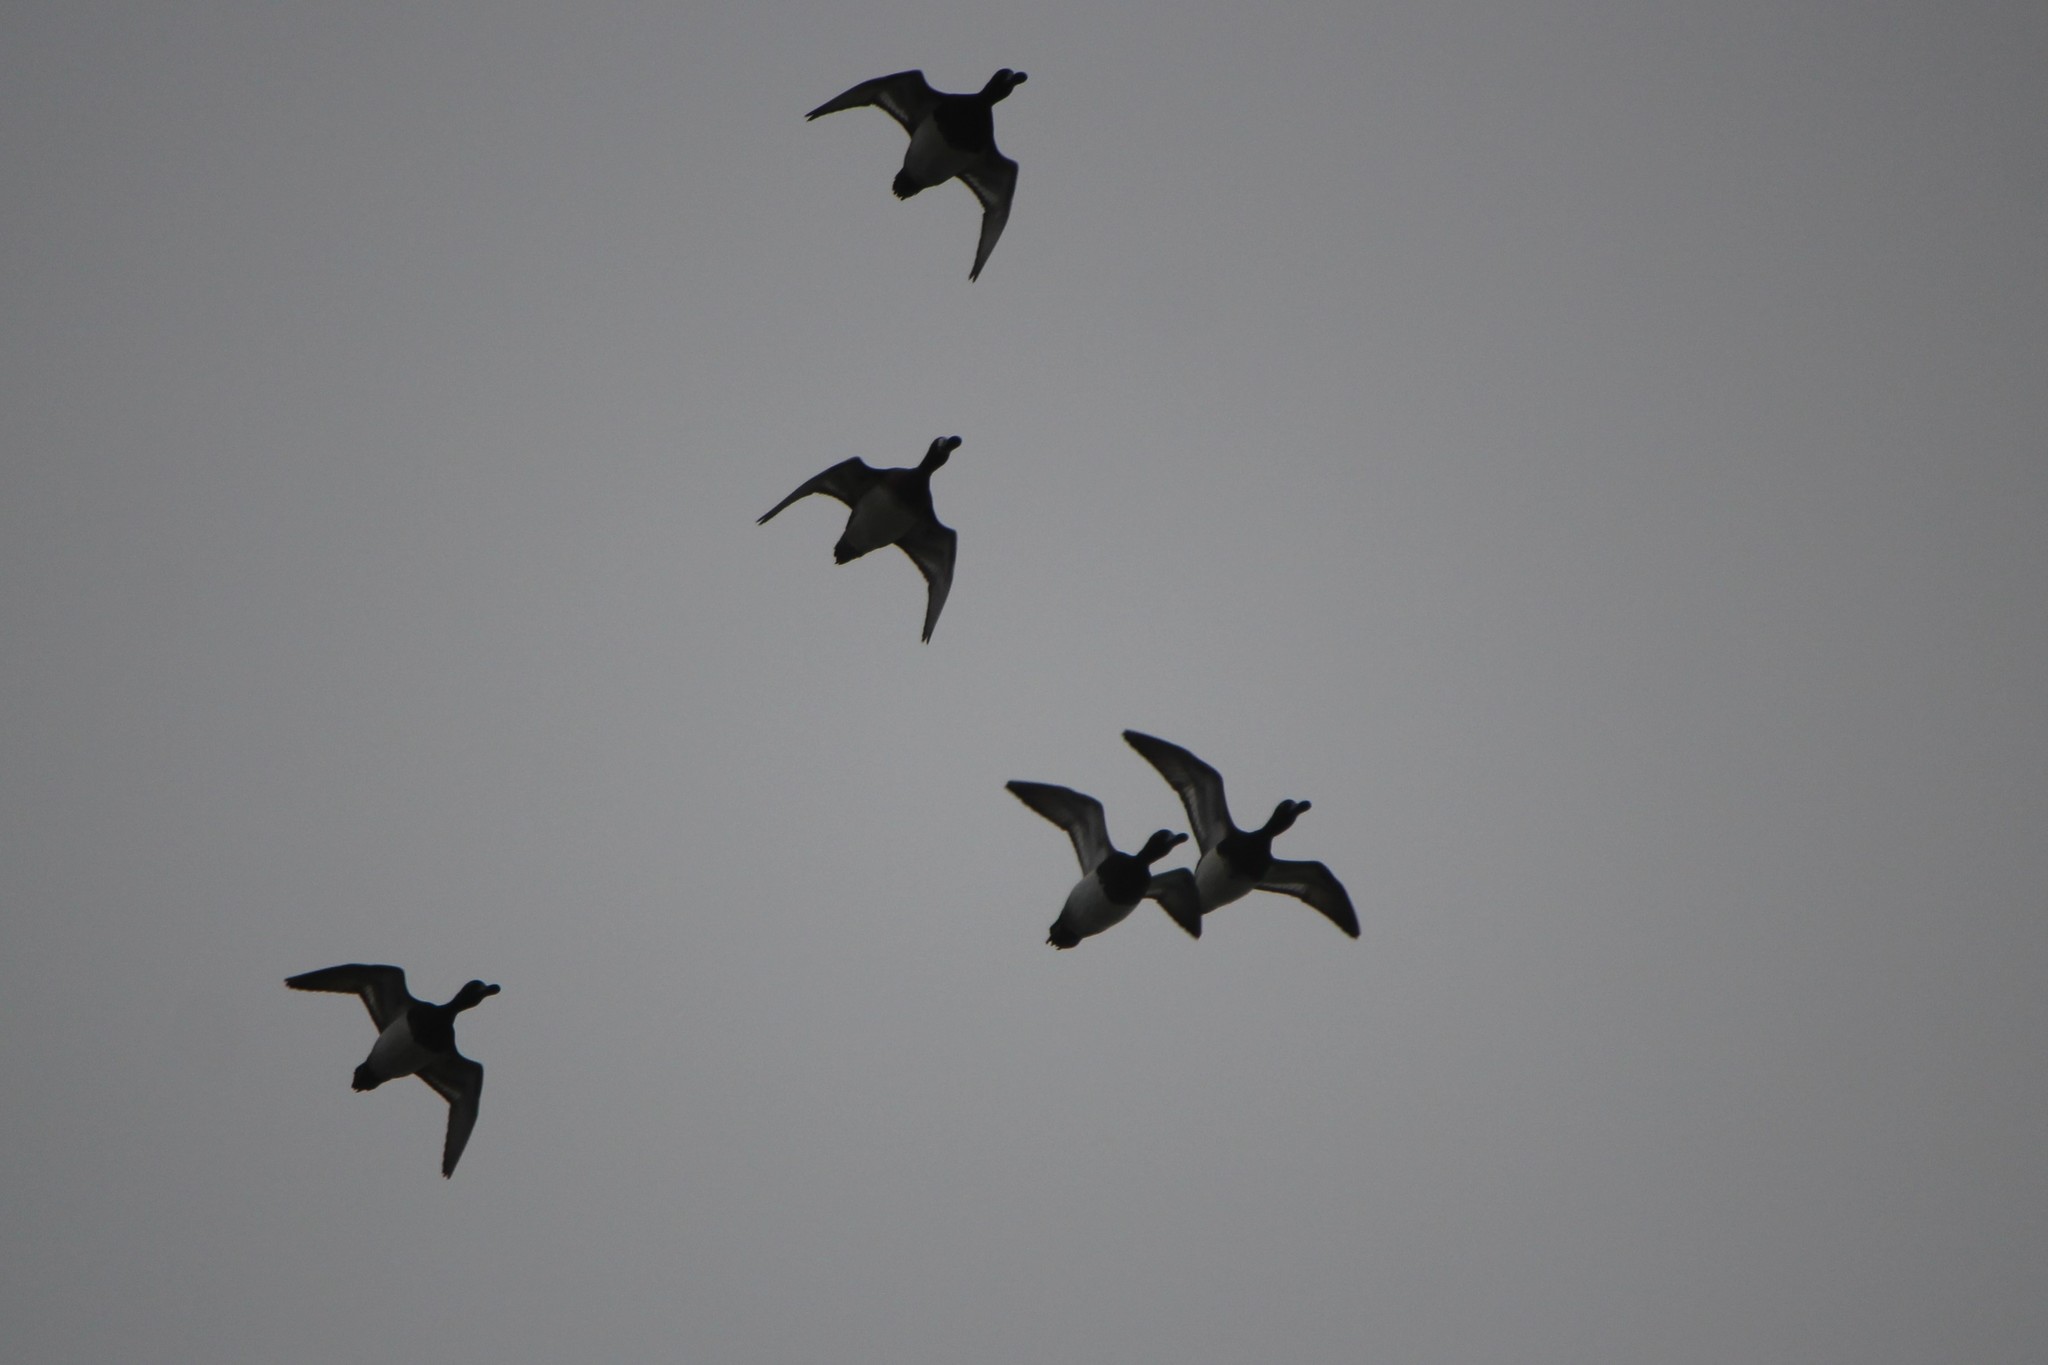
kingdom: Animalia
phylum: Chordata
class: Aves
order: Anseriformes
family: Anatidae
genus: Aythya
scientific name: Aythya affinis
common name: Lesser scaup
